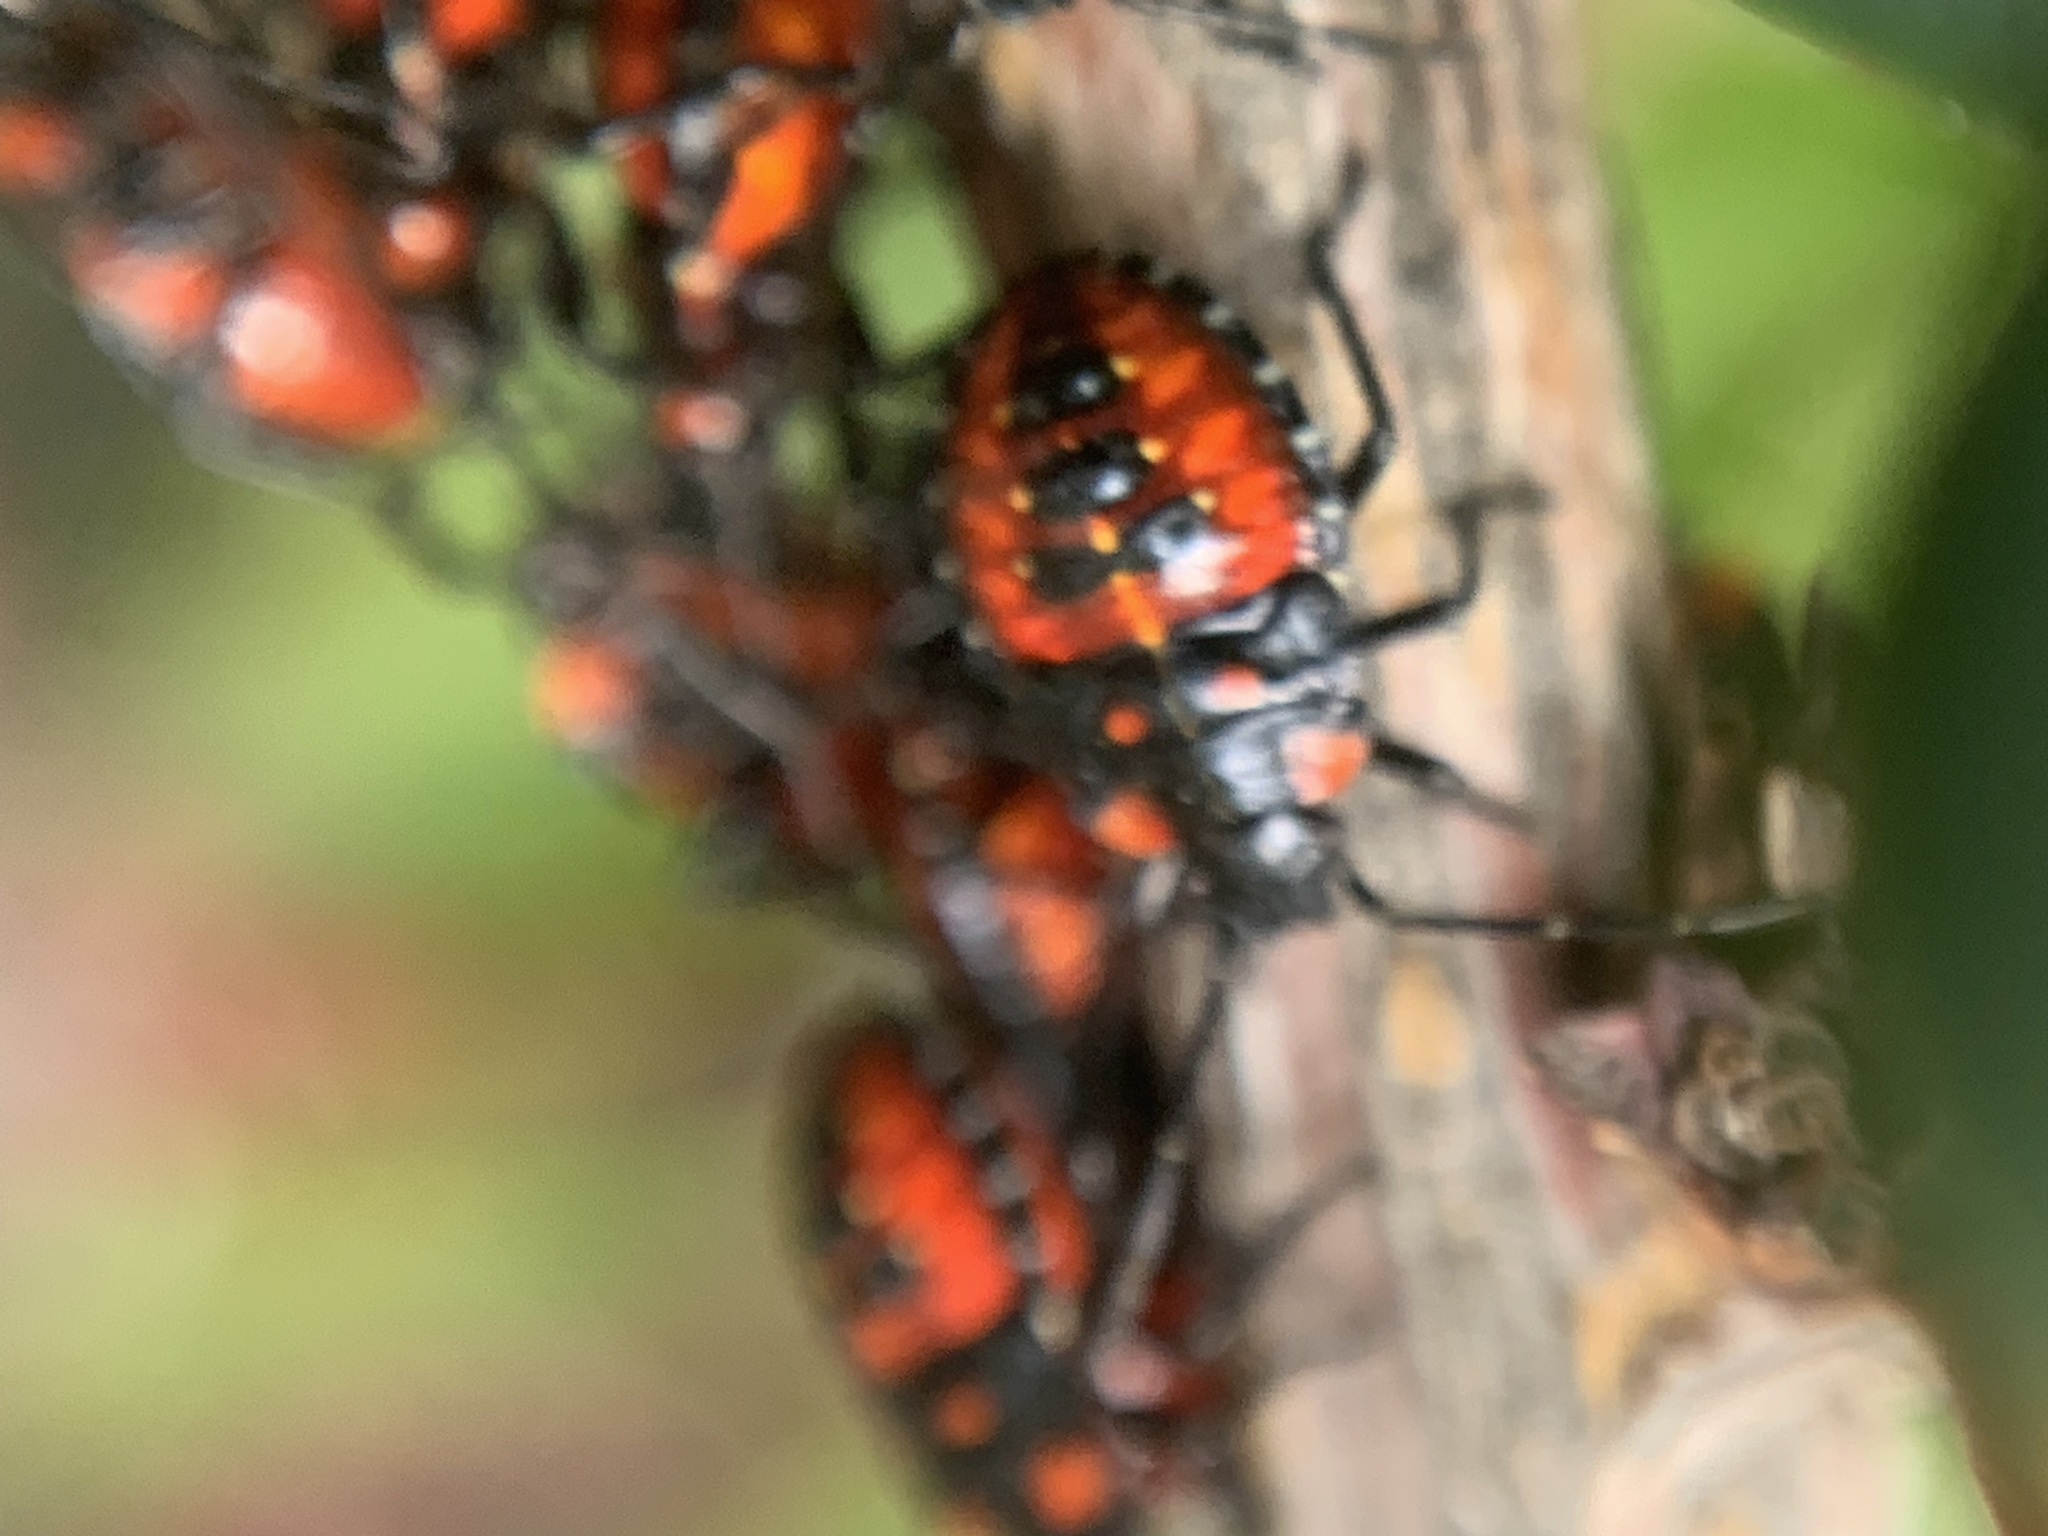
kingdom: Animalia
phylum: Arthropoda
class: Insecta
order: Hemiptera
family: Acanthosomatidae
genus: Phorbanta
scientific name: Phorbanta variabilis
